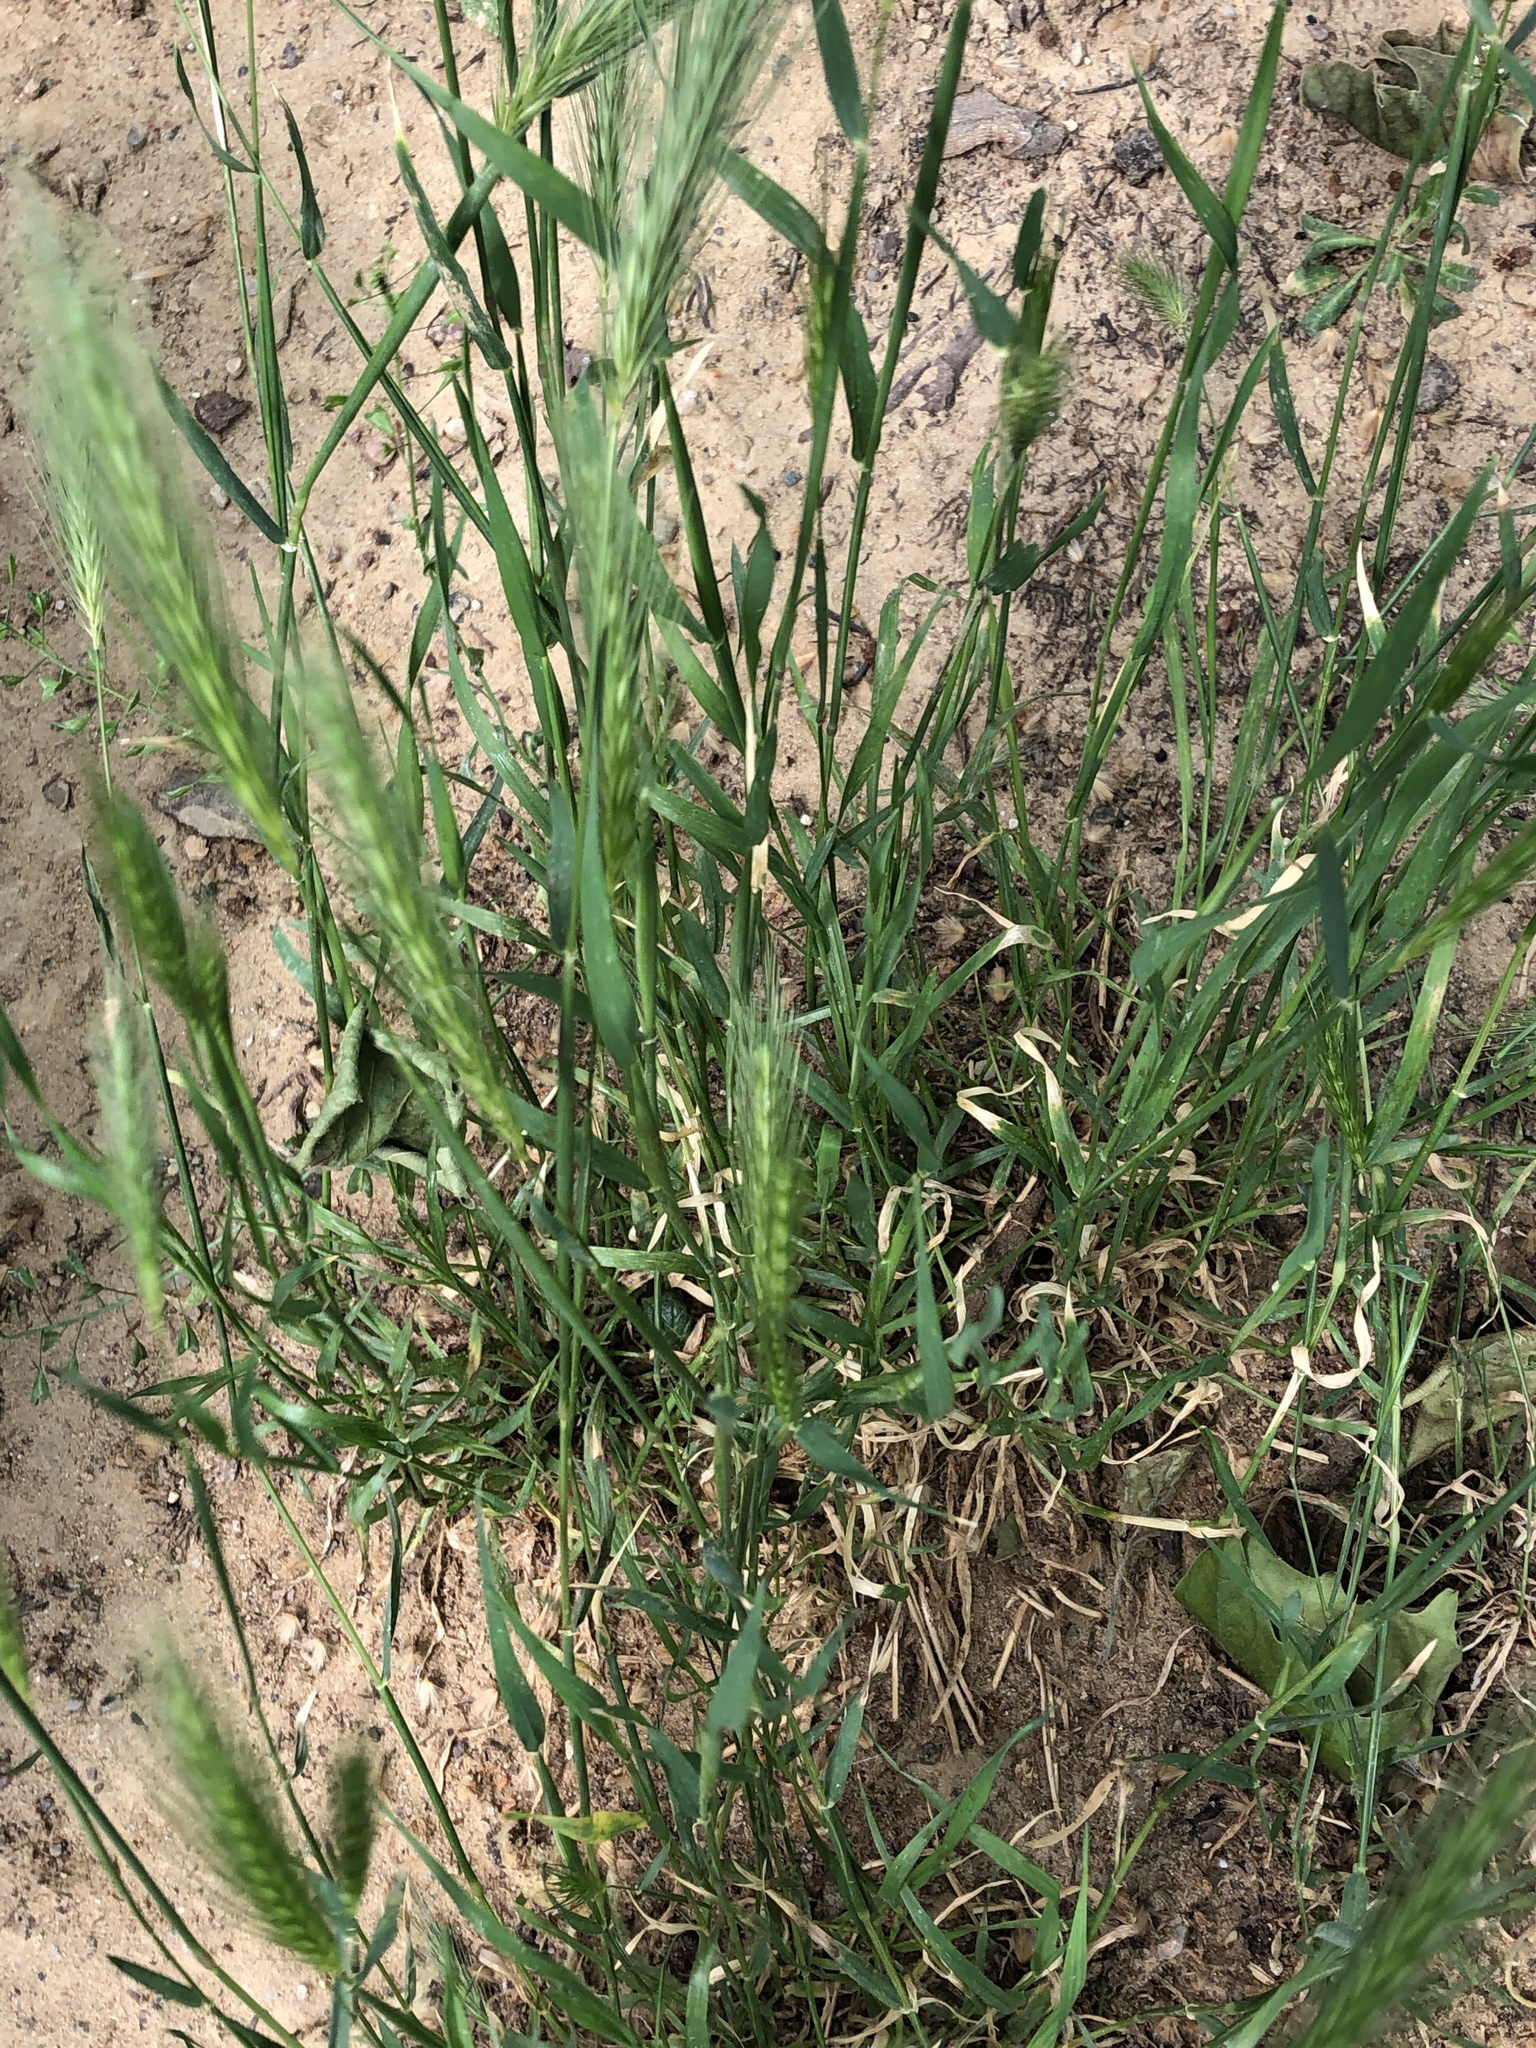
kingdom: Plantae
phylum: Tracheophyta
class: Liliopsida
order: Poales
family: Poaceae
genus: Hordeum
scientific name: Hordeum murinum
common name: Wall barley
